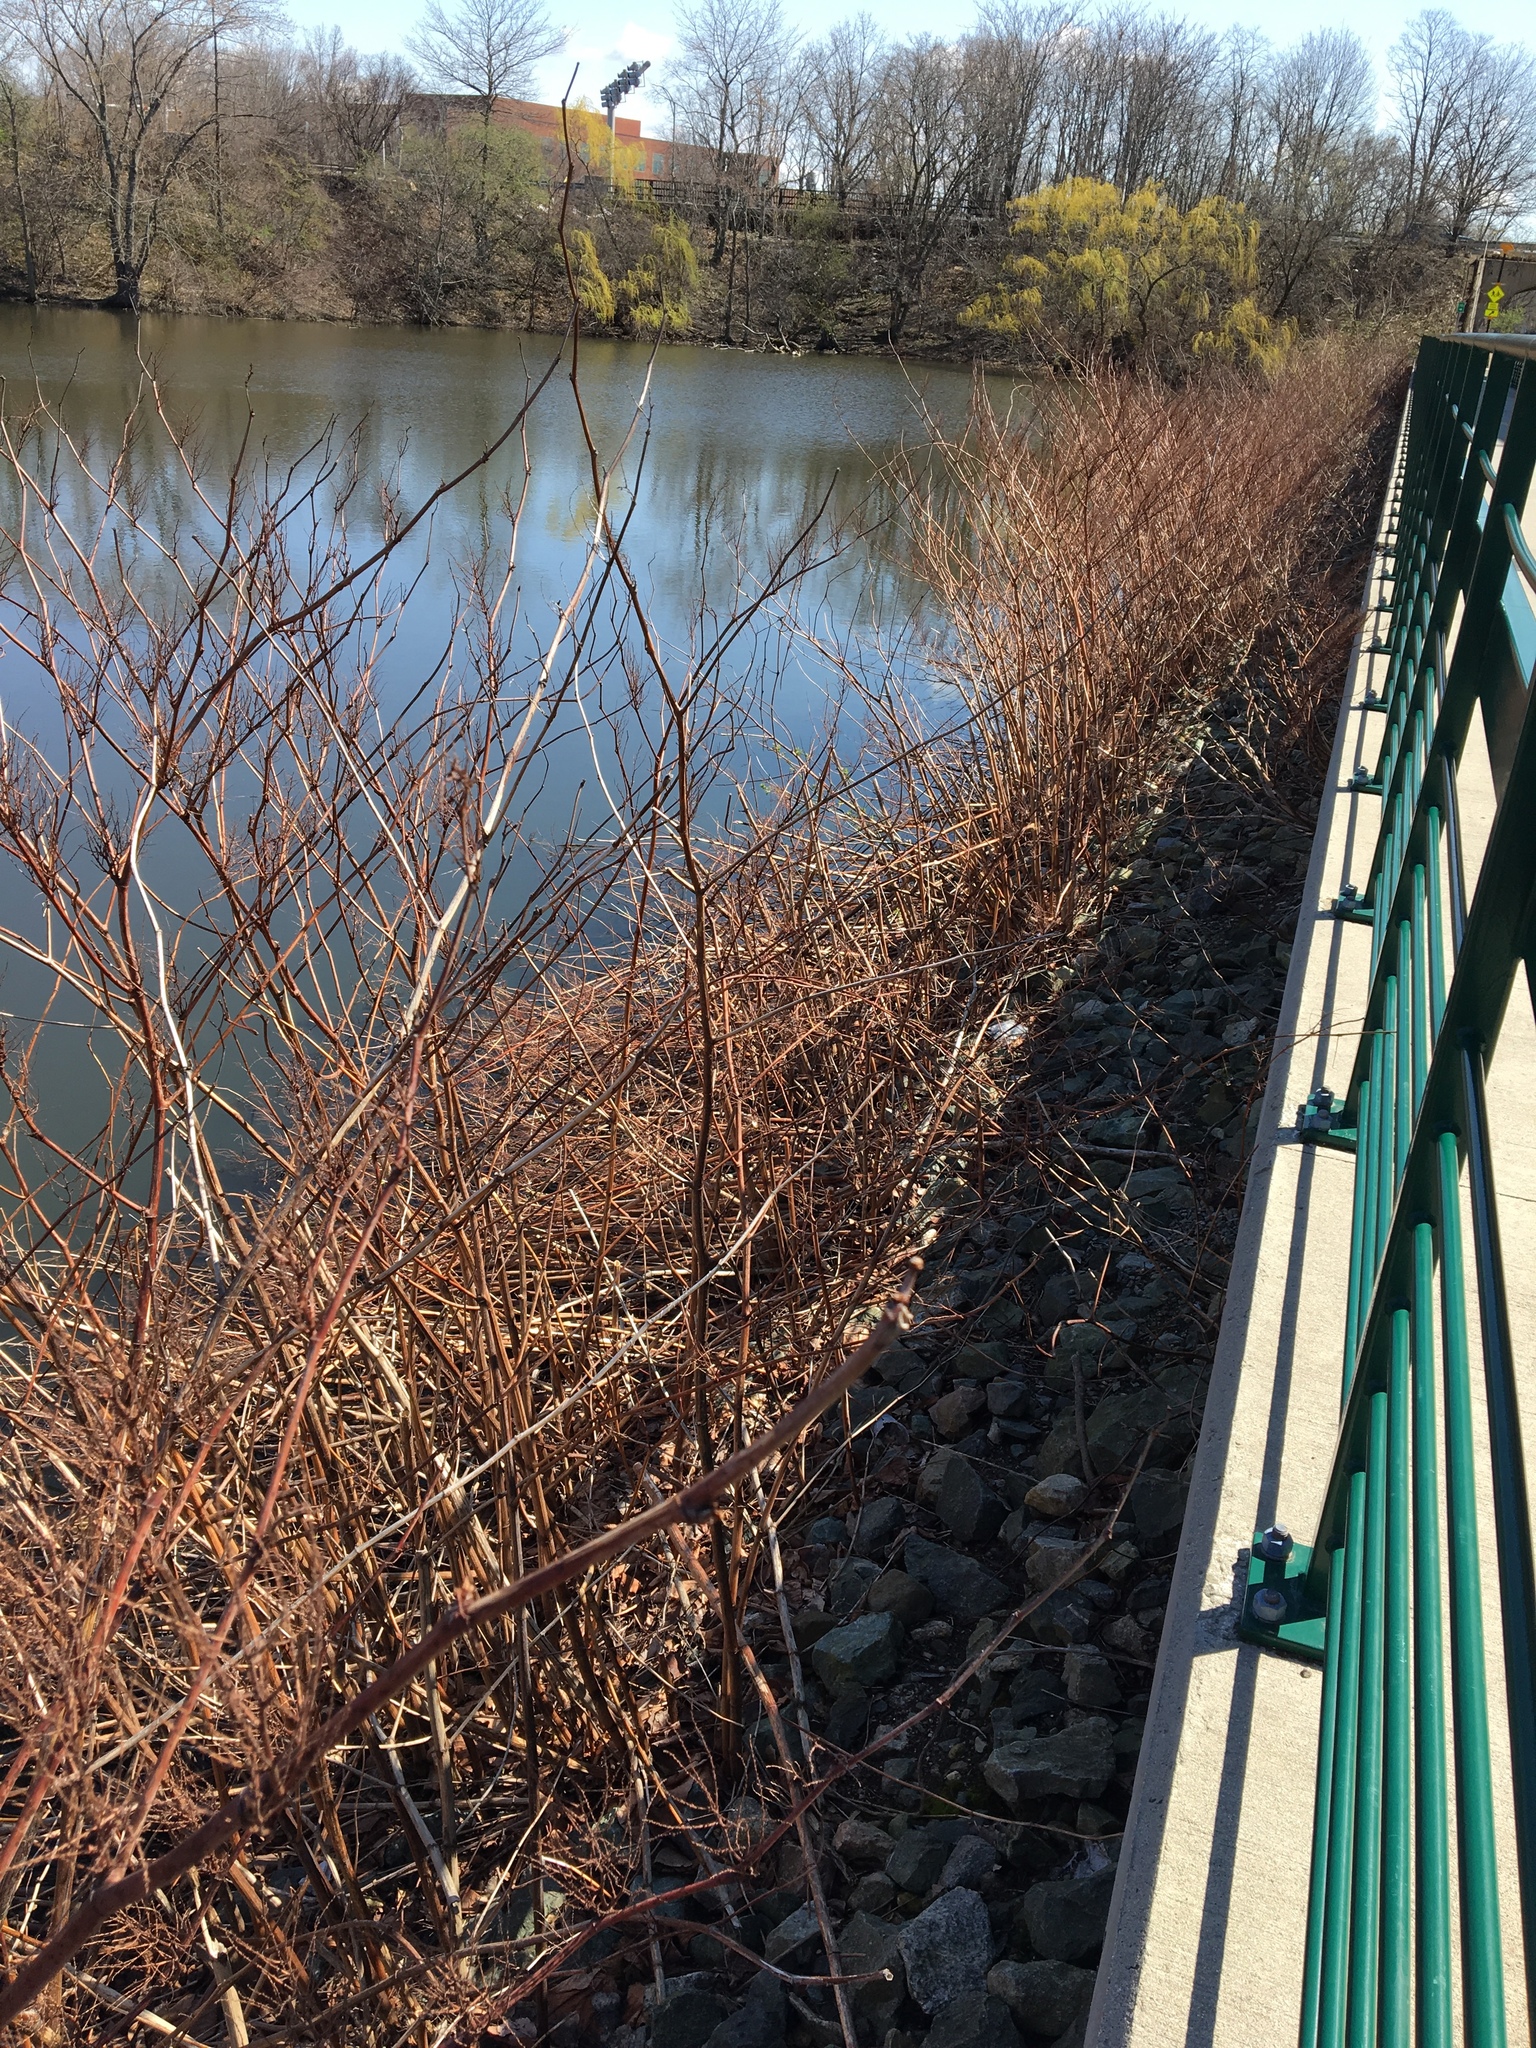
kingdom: Plantae
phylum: Tracheophyta
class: Magnoliopsida
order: Caryophyllales
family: Polygonaceae
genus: Reynoutria
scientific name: Reynoutria japonica
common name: Japanese knotweed
